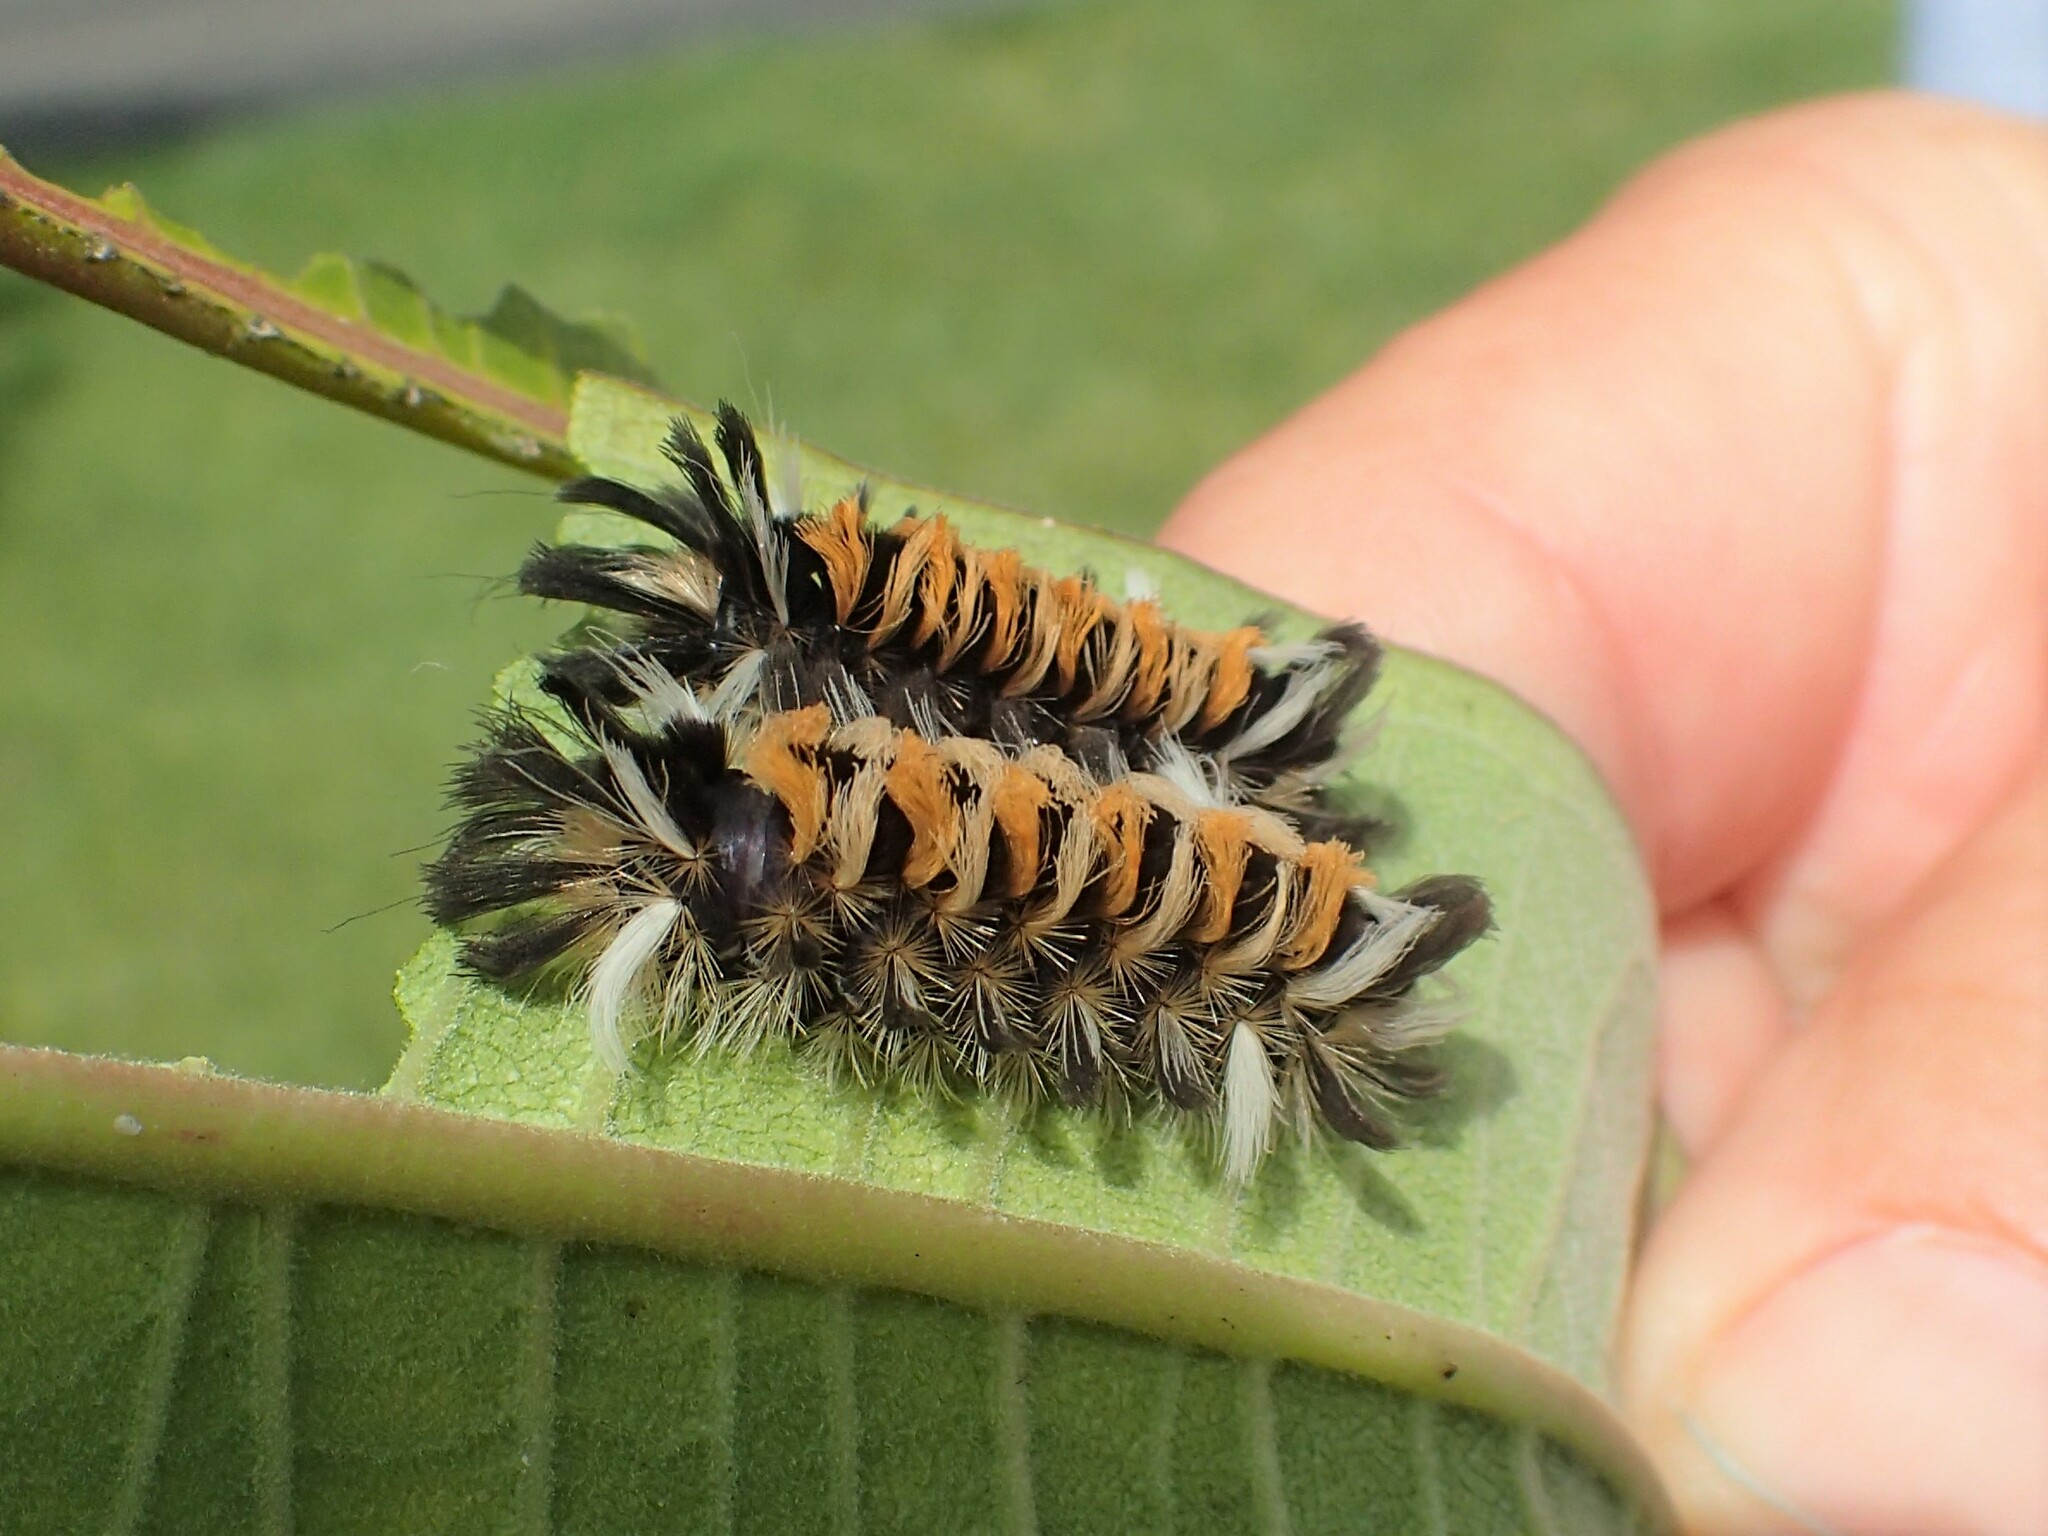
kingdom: Animalia
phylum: Arthropoda
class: Insecta
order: Lepidoptera
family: Erebidae
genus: Euchaetes
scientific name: Euchaetes egle
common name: Milkweed tussock moth
